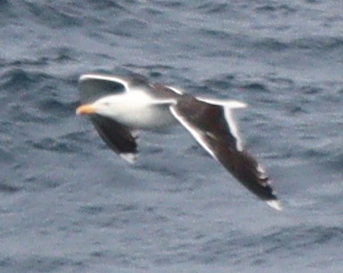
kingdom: Animalia
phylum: Chordata
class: Aves
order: Charadriiformes
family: Laridae
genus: Larus
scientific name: Larus marinus
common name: Great black-backed gull
